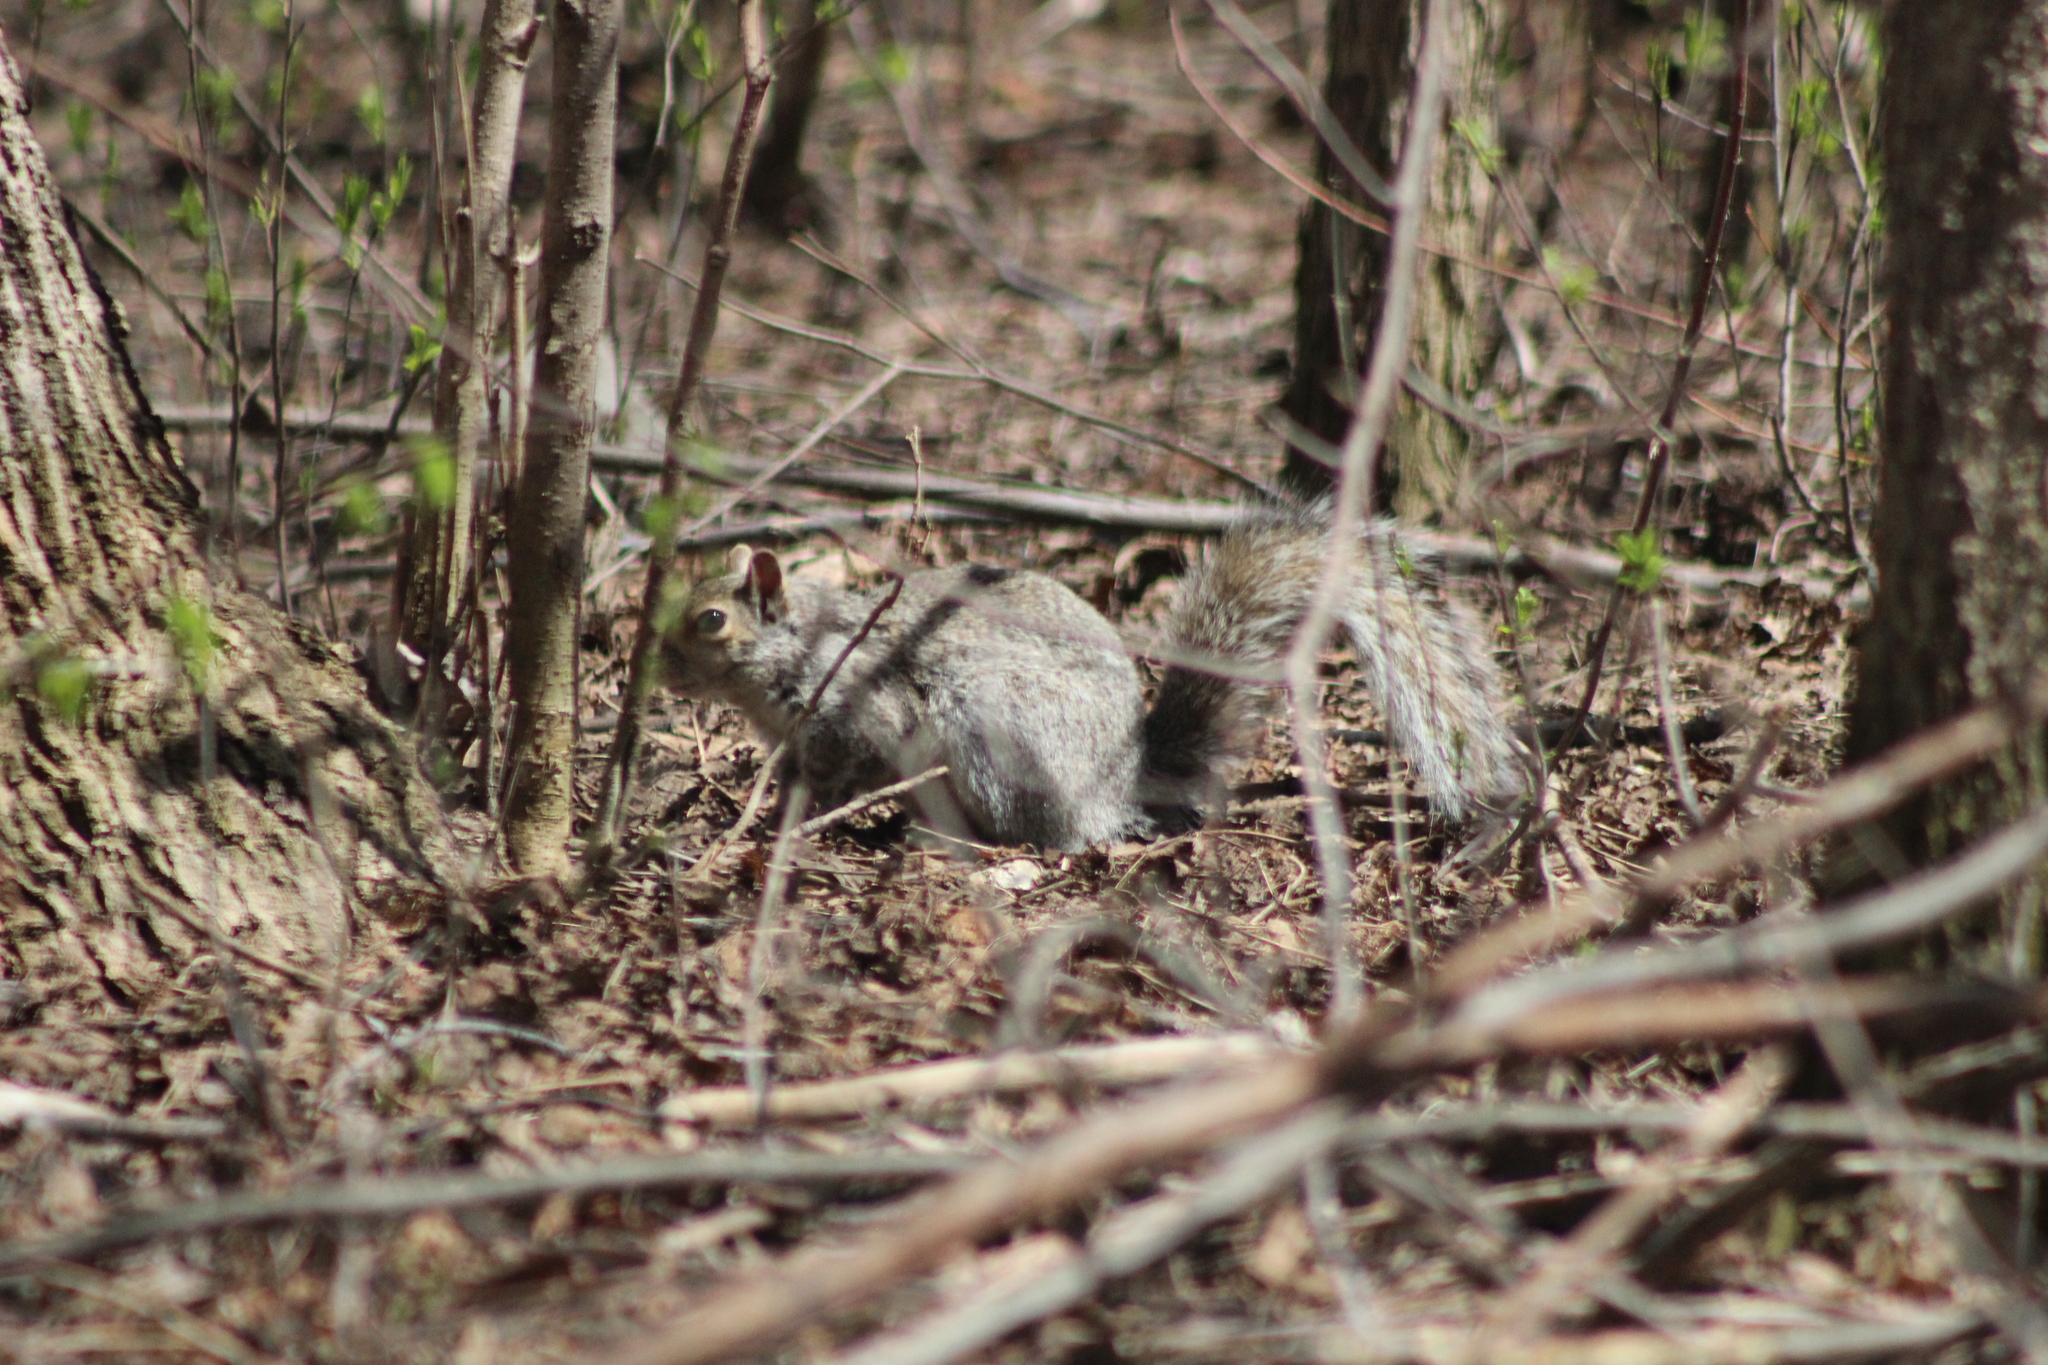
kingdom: Animalia
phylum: Chordata
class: Mammalia
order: Rodentia
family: Sciuridae
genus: Sciurus
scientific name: Sciurus carolinensis
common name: Eastern gray squirrel
